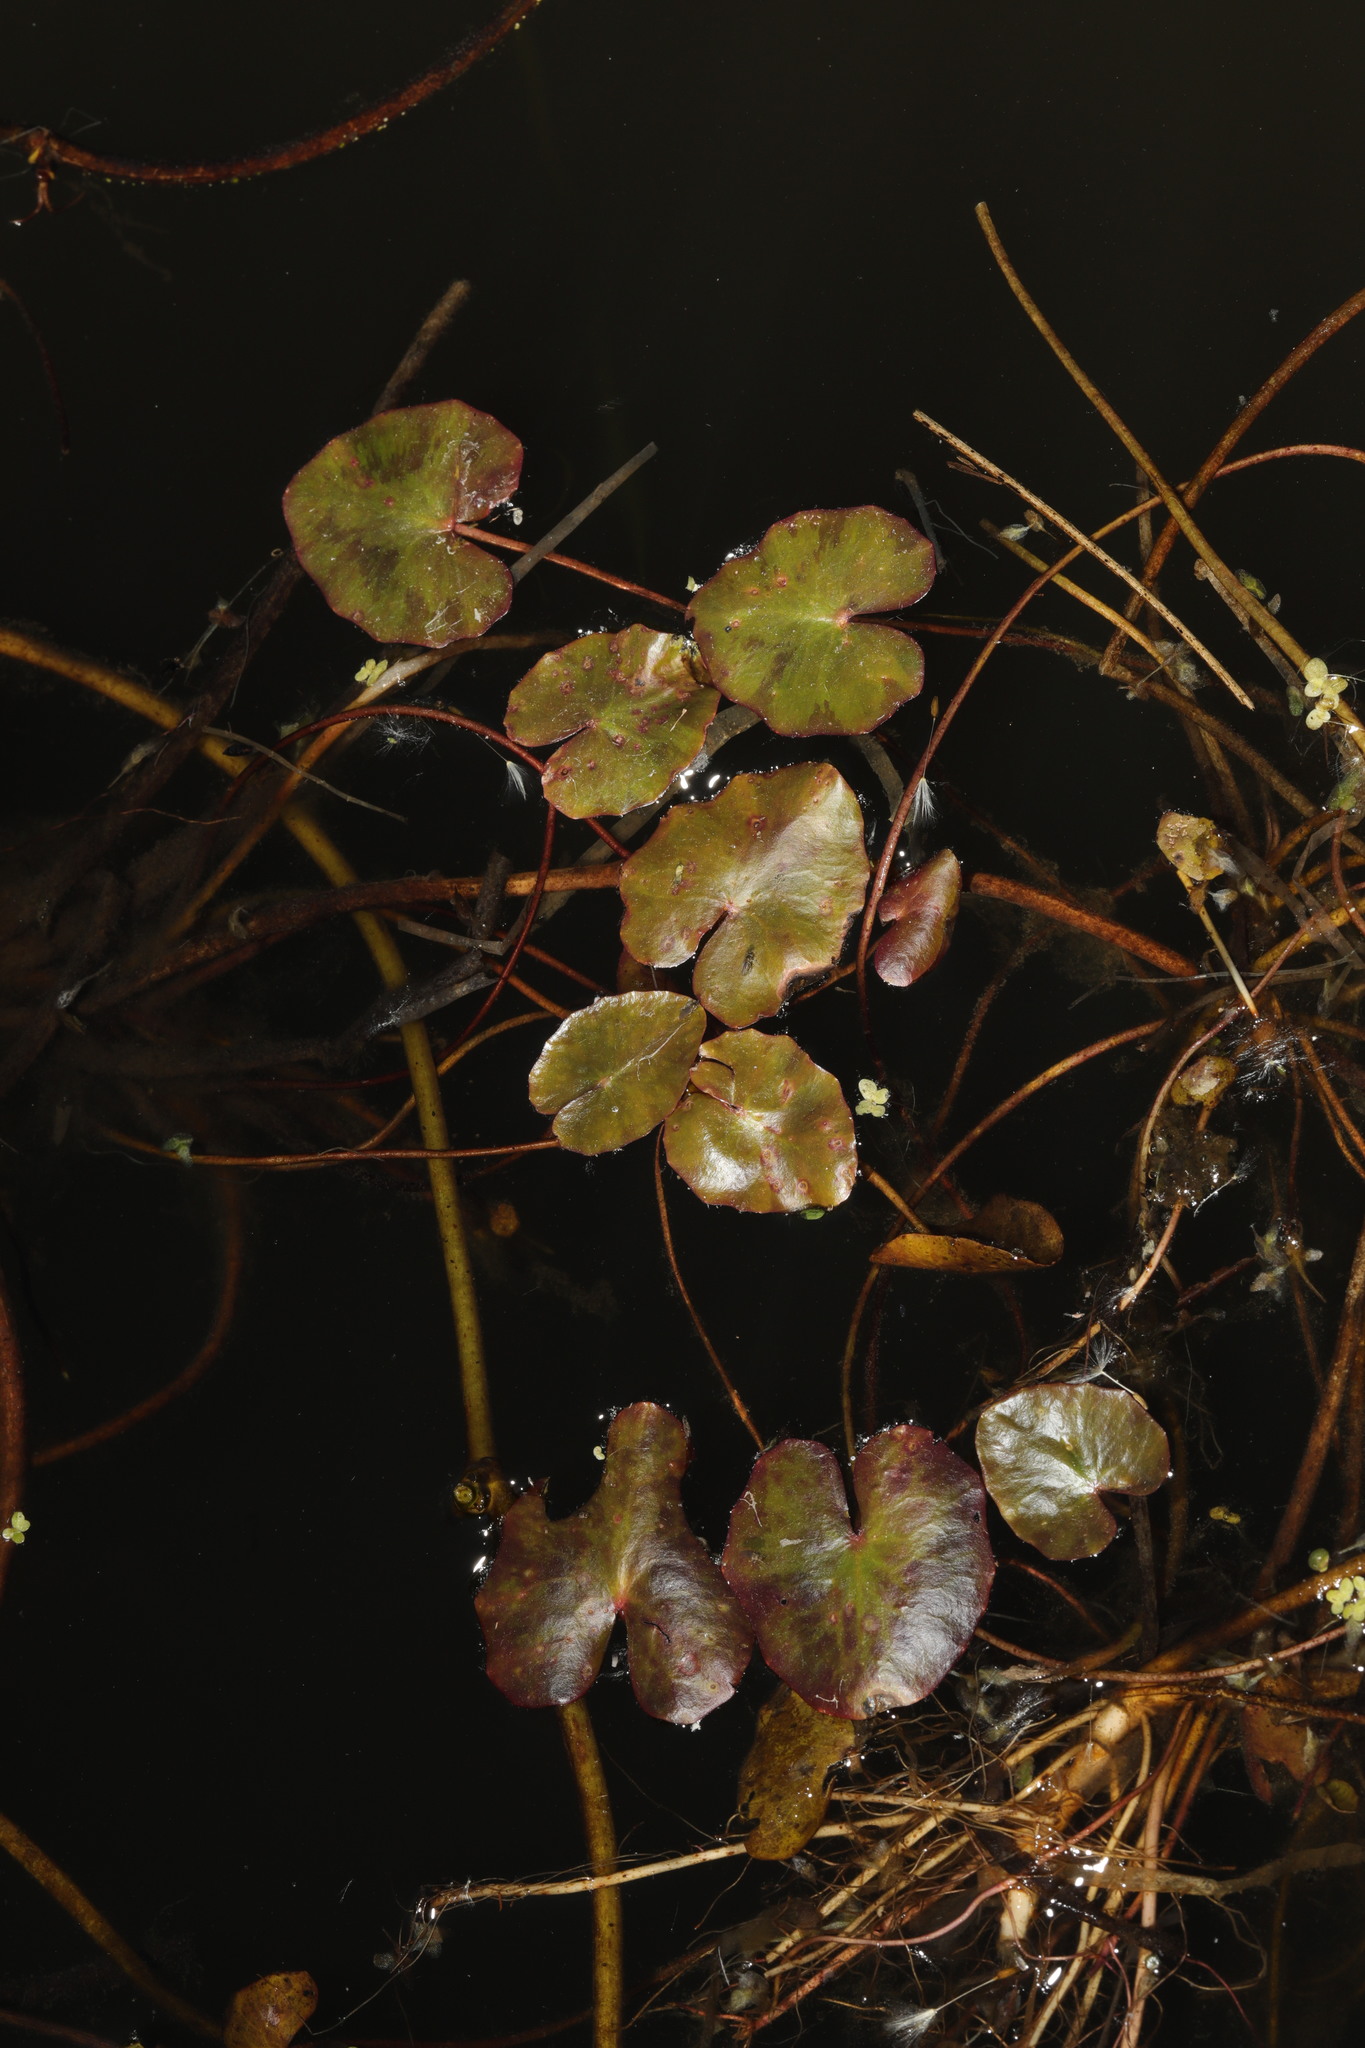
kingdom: Plantae
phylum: Tracheophyta
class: Magnoliopsida
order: Asterales
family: Menyanthaceae
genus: Nymphoides
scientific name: Nymphoides peltata
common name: Fringed water-lily
